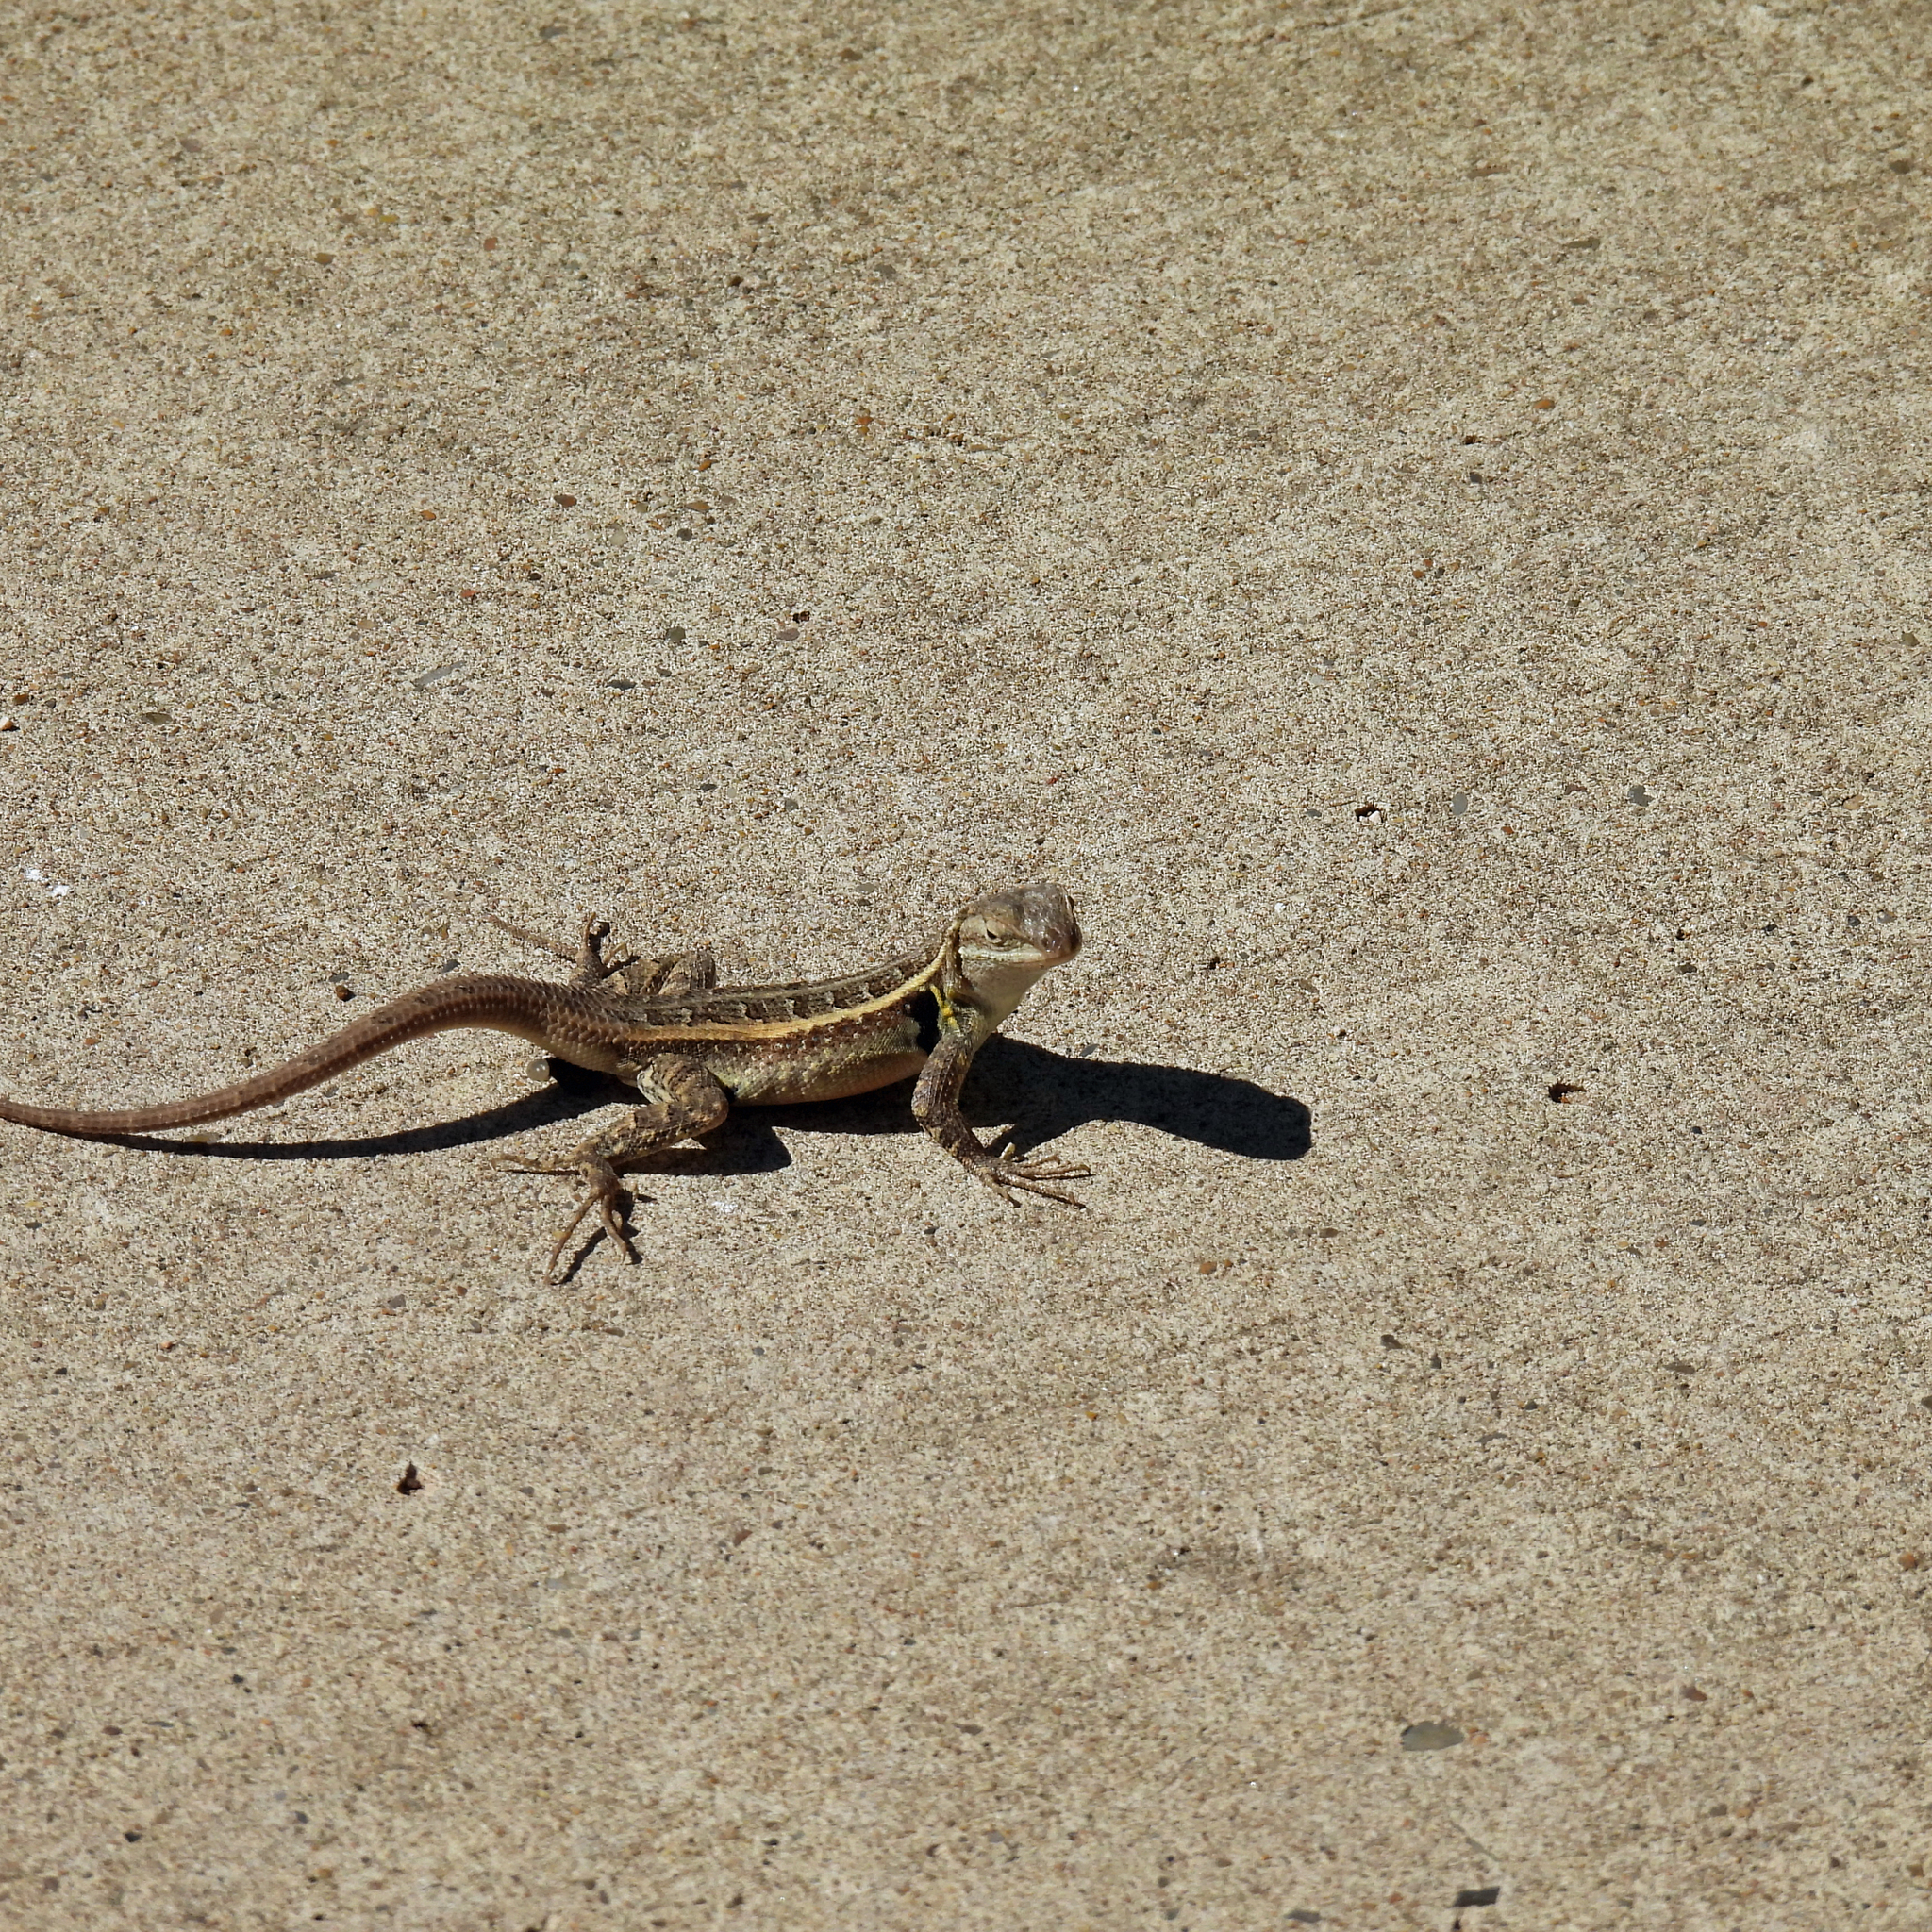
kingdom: Animalia
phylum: Chordata
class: Squamata
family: Phrynosomatidae
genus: Sceloporus
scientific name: Sceloporus variabilis
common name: Rosebelly lizard
